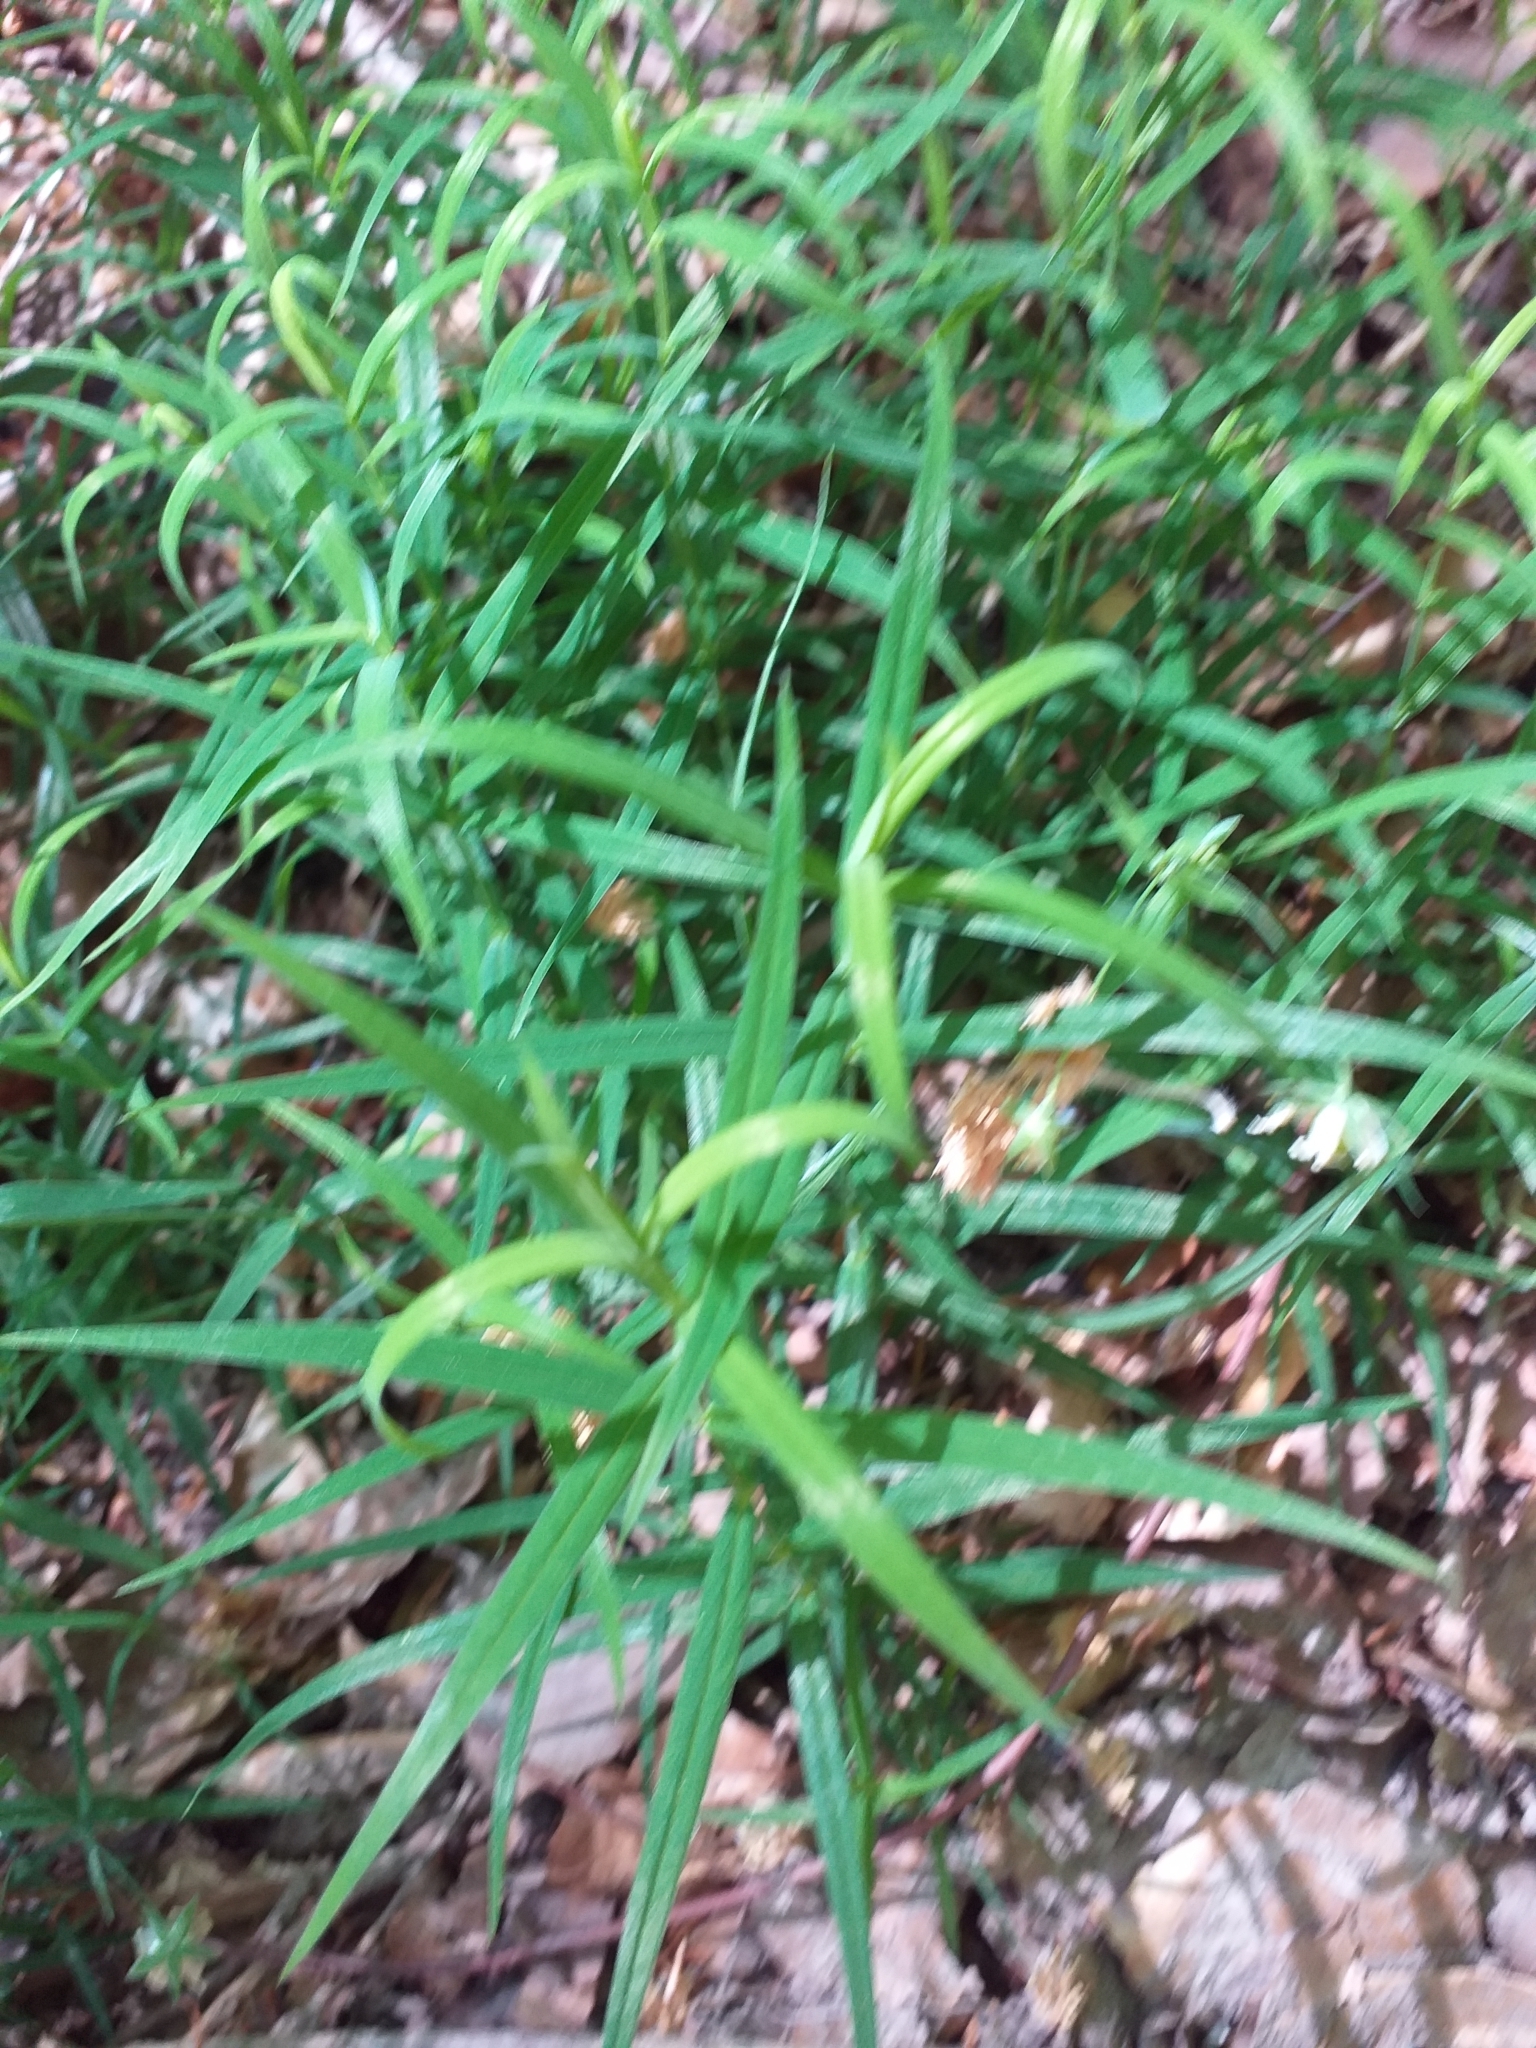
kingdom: Plantae
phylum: Tracheophyta
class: Magnoliopsida
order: Caryophyllales
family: Caryophyllaceae
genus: Rabelera
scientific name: Rabelera holostea
